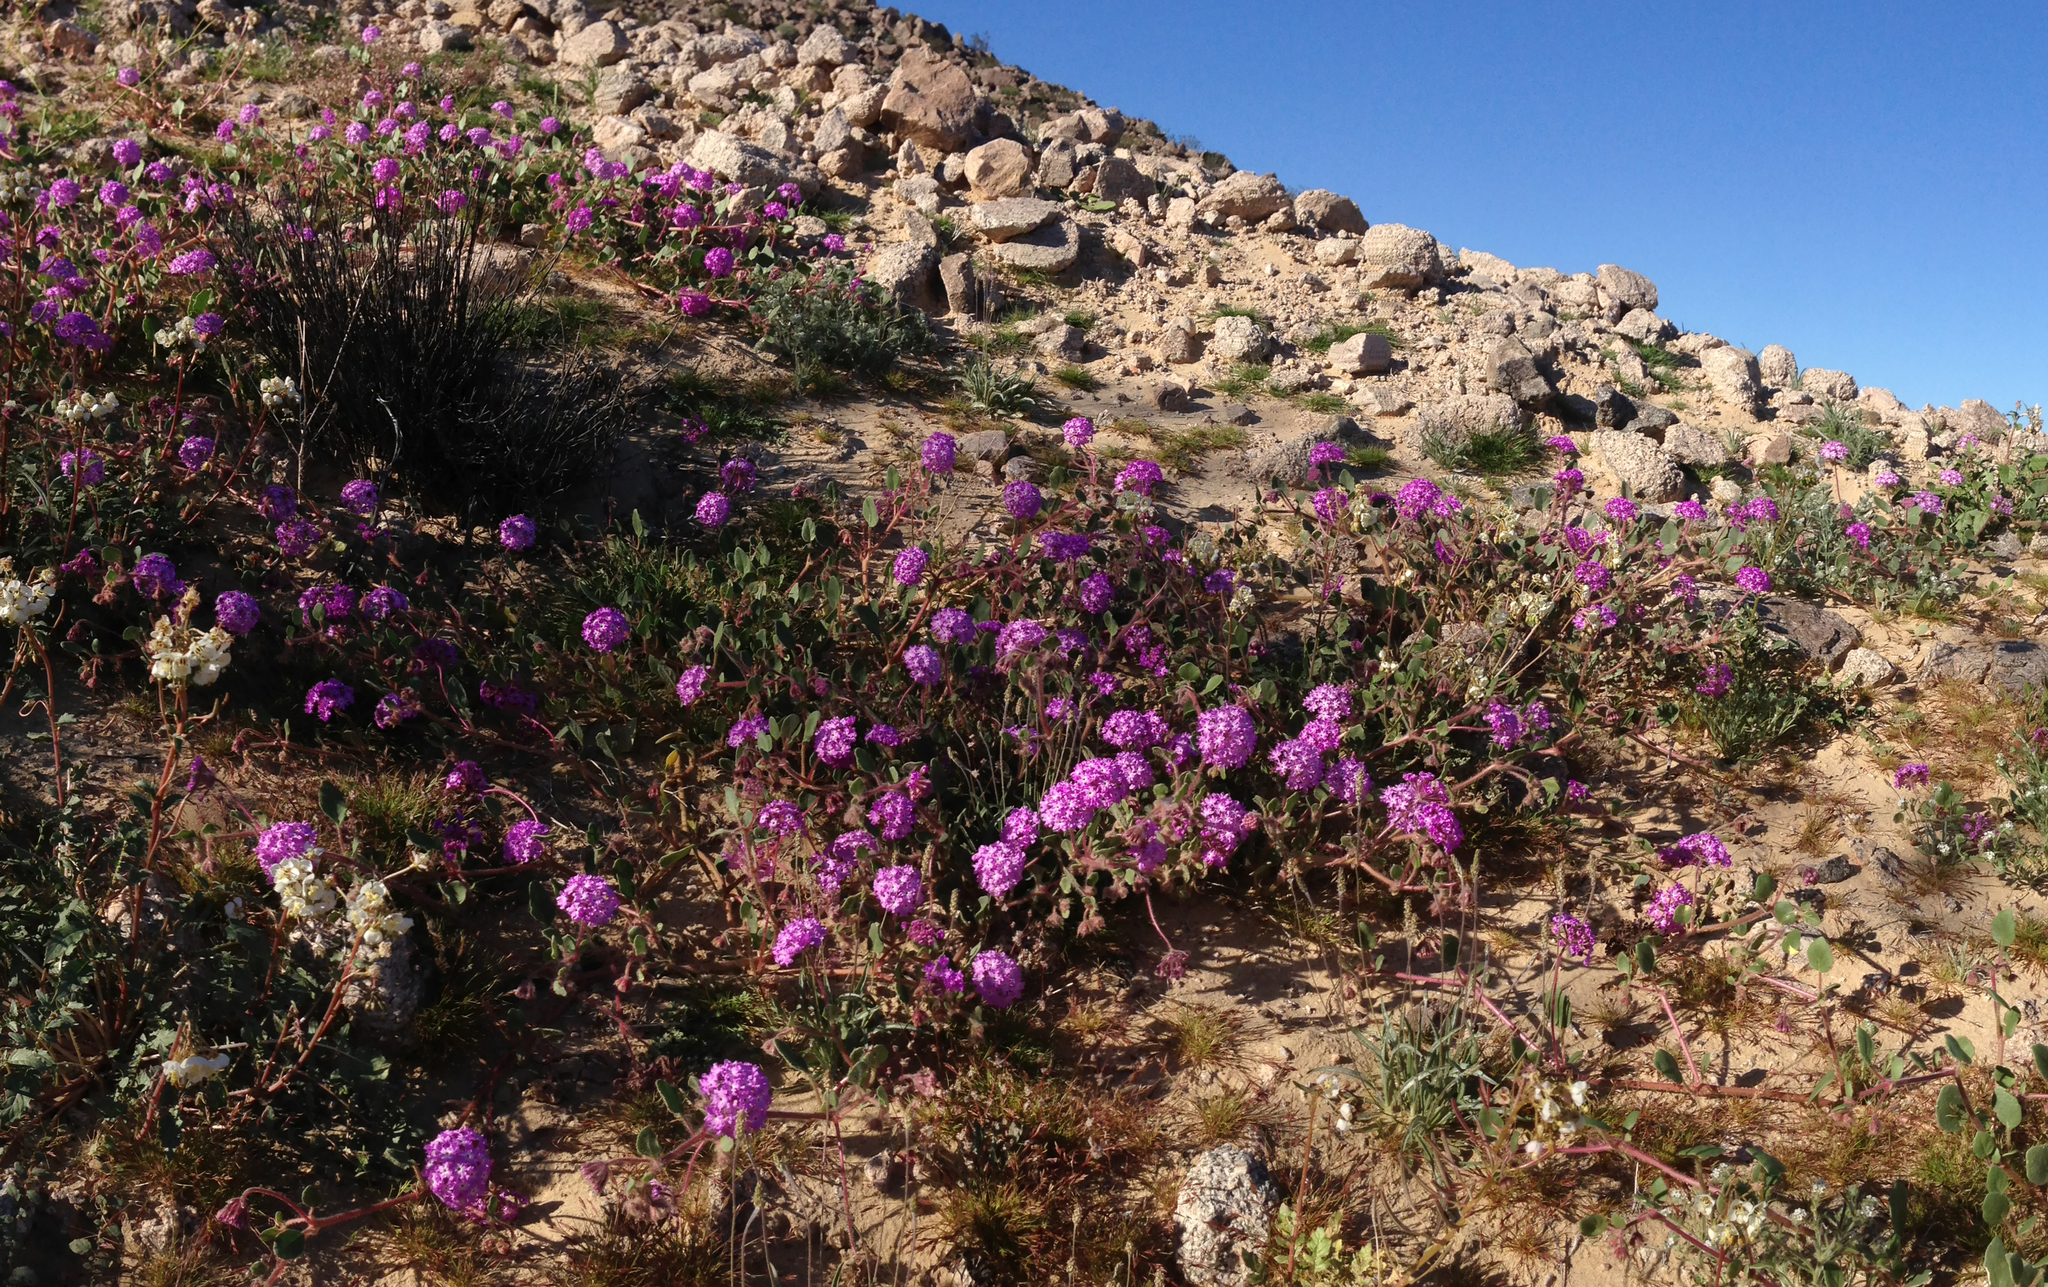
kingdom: Plantae
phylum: Tracheophyta
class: Magnoliopsida
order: Caryophyllales
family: Nyctaginaceae
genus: Abronia
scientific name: Abronia villosa
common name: Desert sand-verbena
